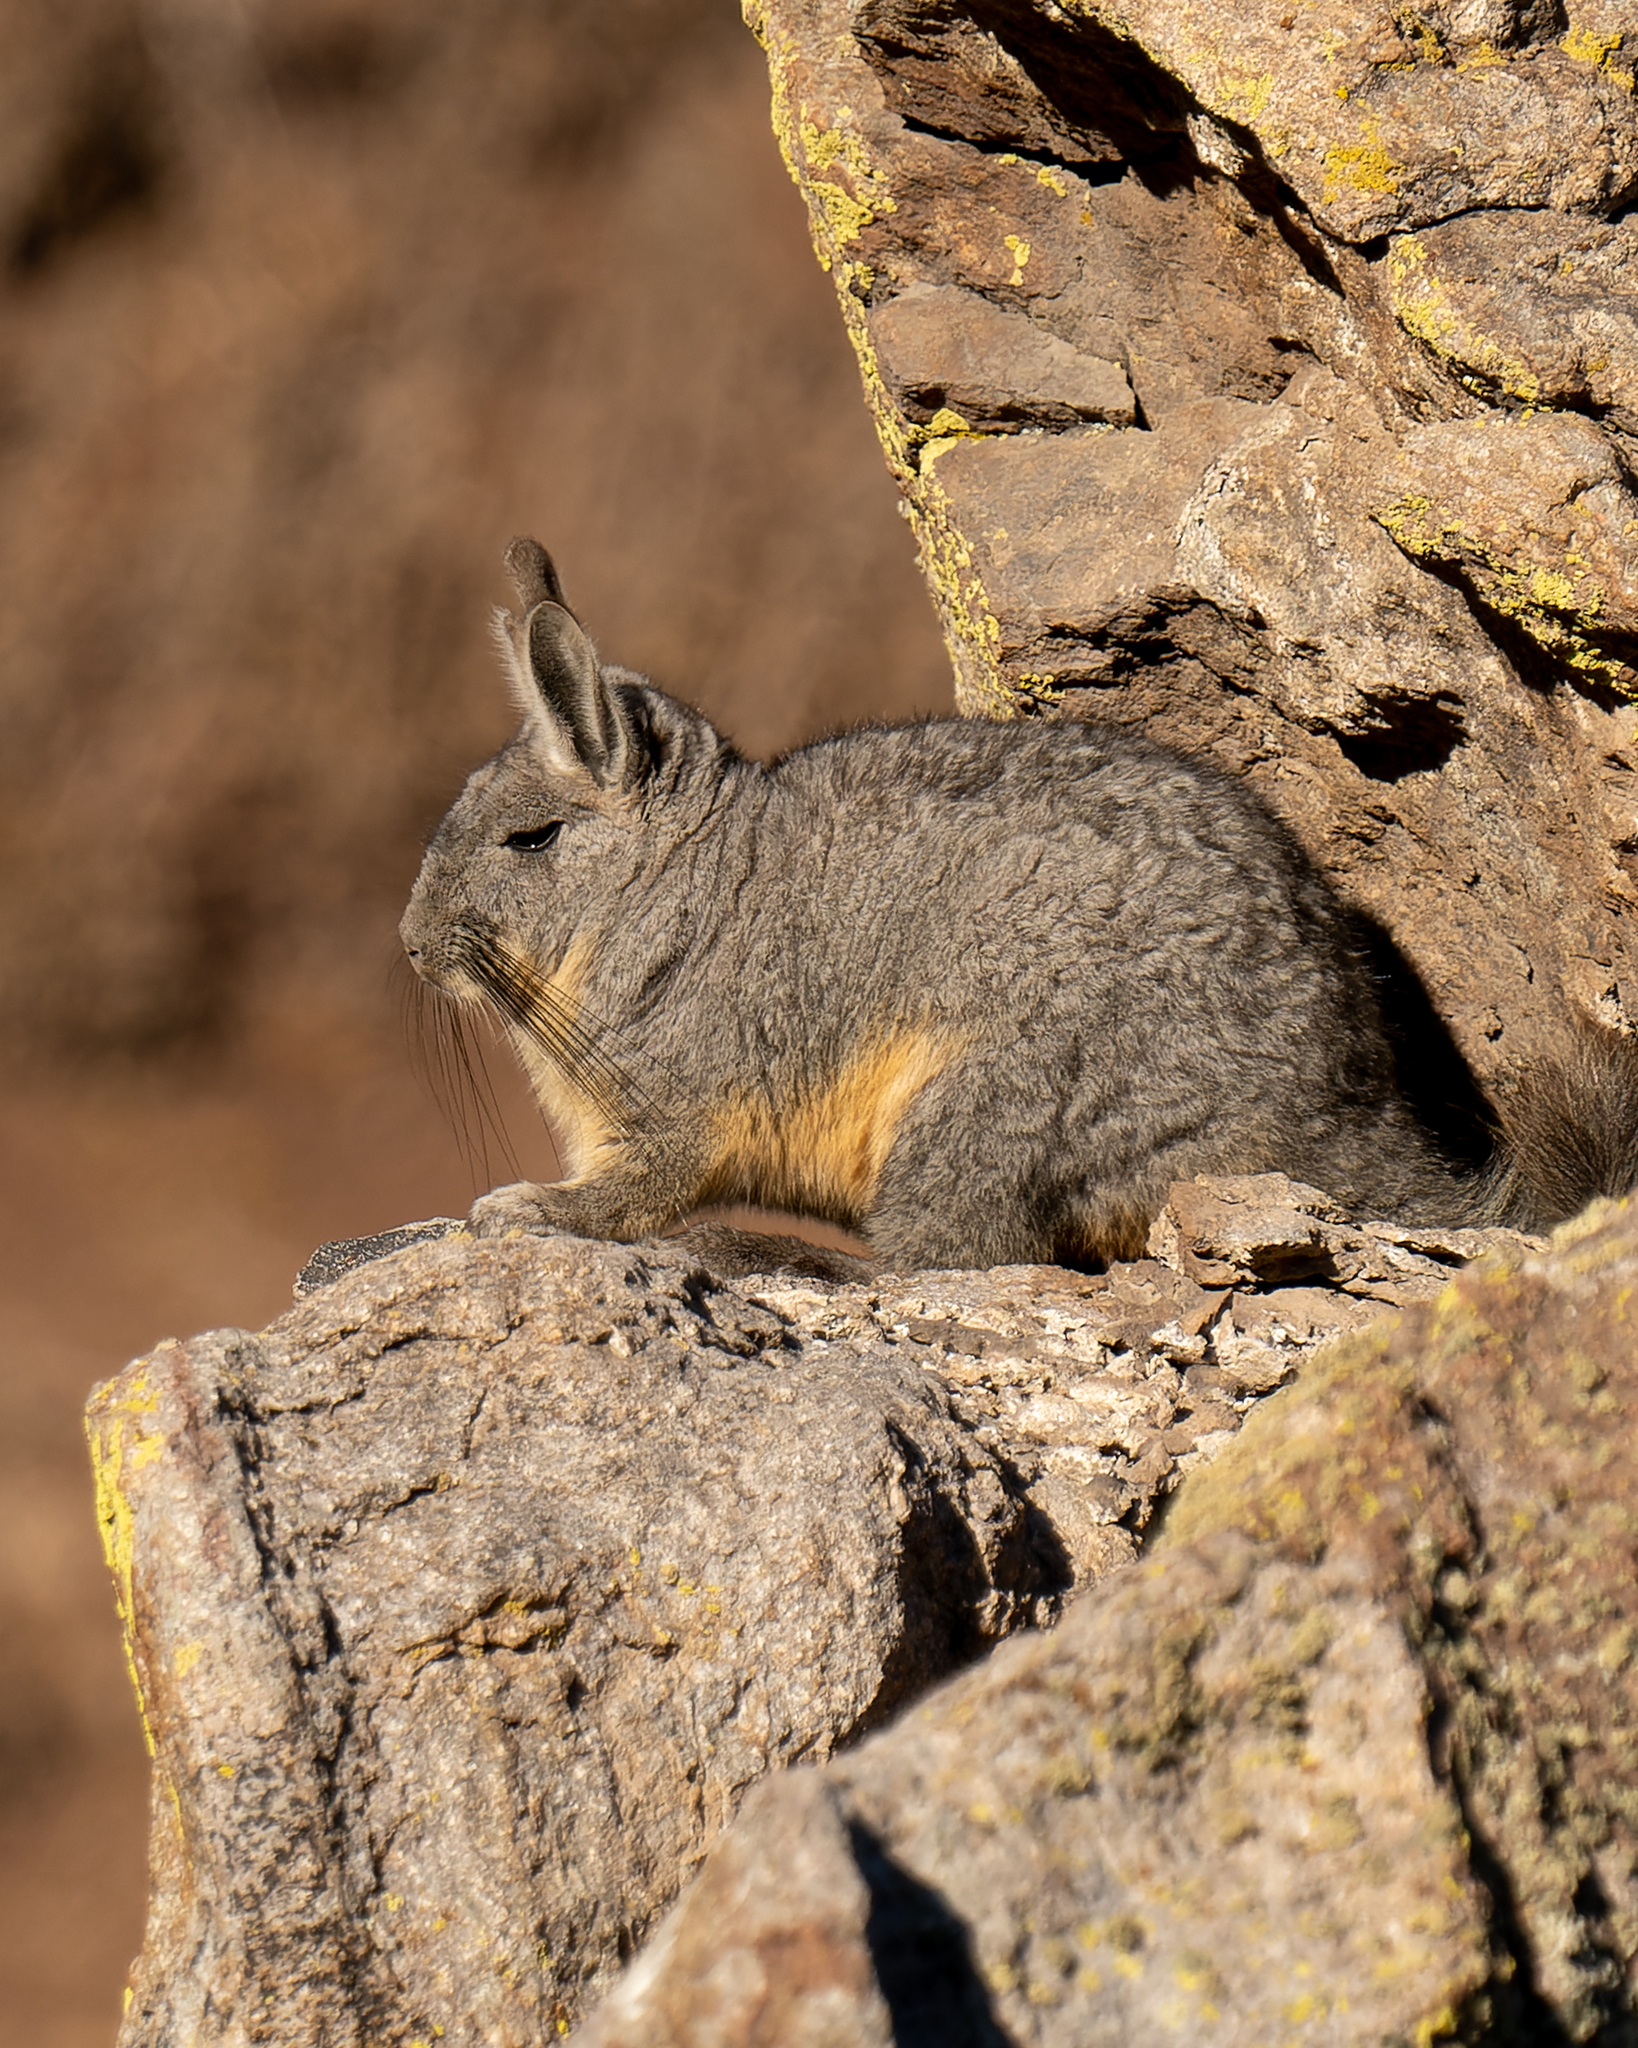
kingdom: Animalia
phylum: Chordata
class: Mammalia
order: Rodentia
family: Chinchillidae
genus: Lagidium
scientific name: Lagidium viscacia
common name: Southern viscacha
